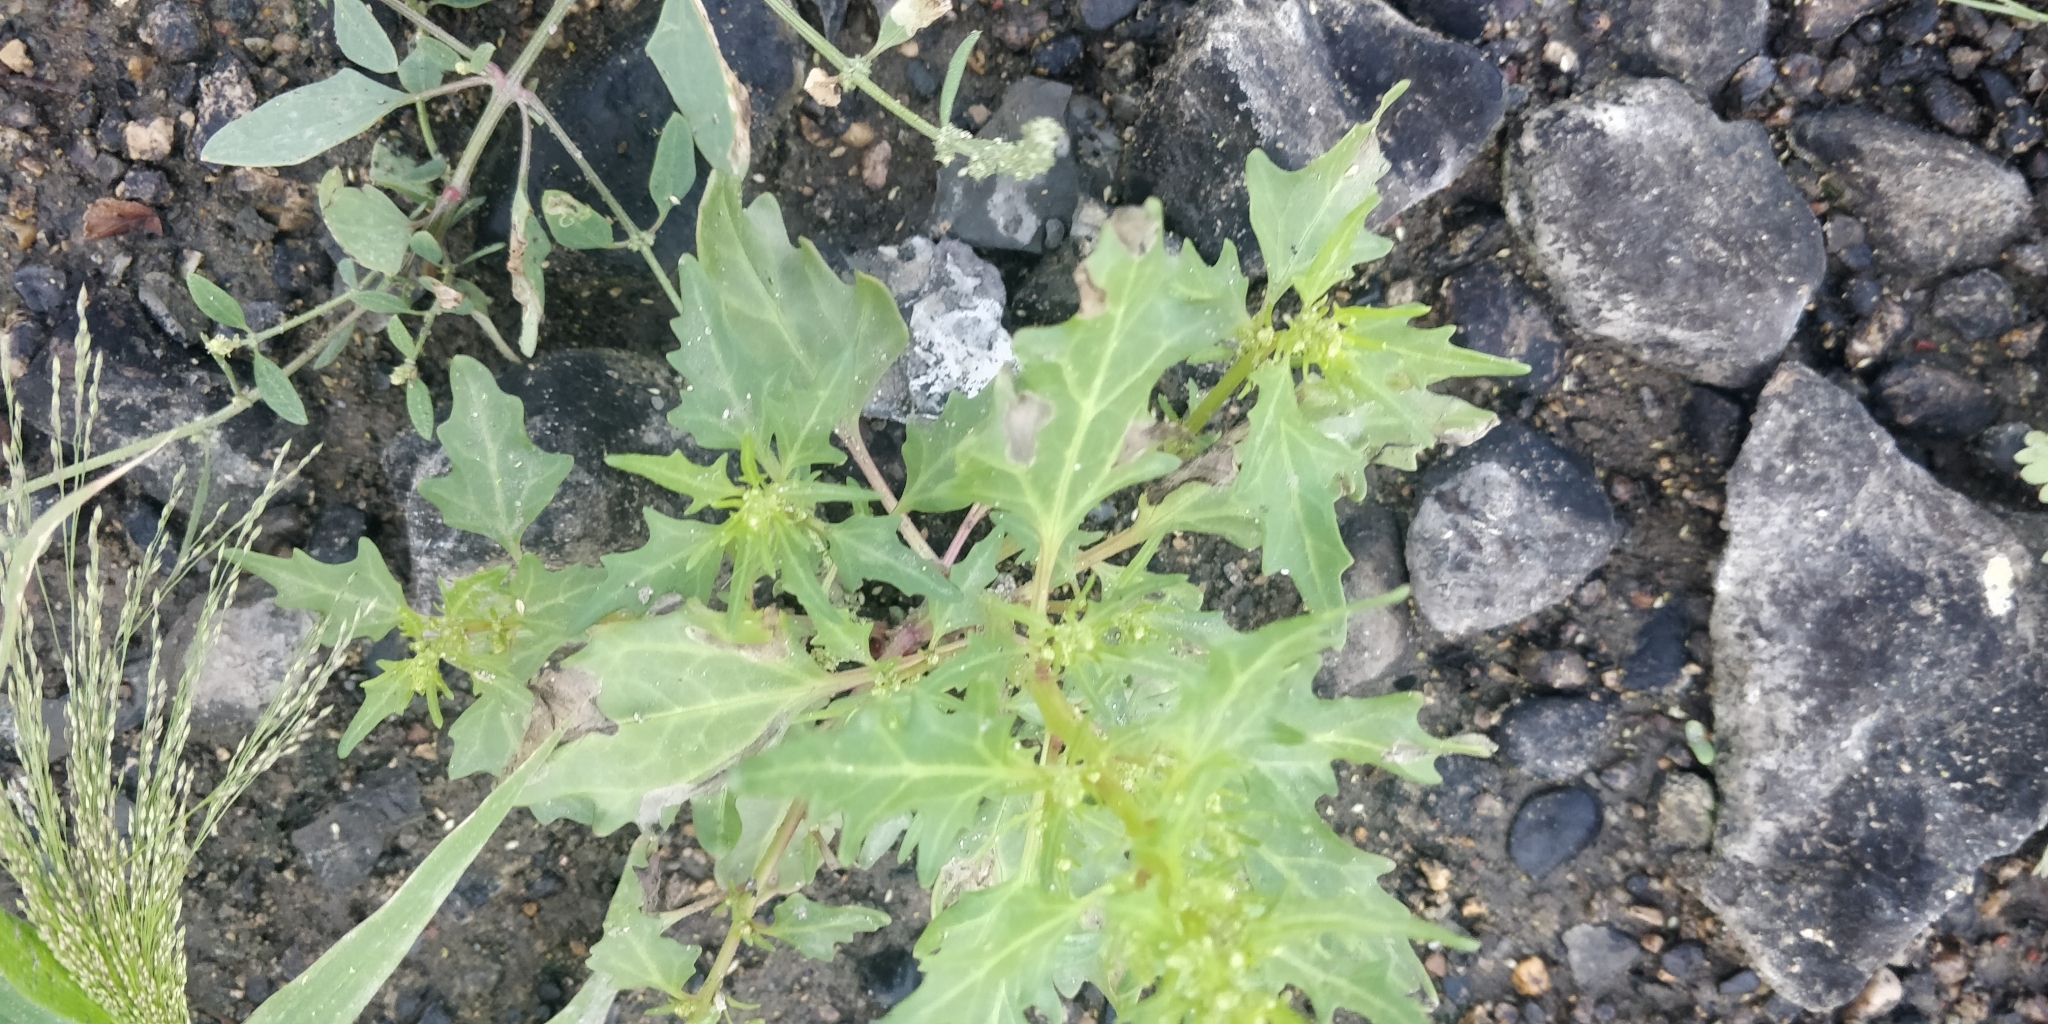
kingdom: Plantae
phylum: Tracheophyta
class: Magnoliopsida
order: Caryophyllales
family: Amaranthaceae
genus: Oxybasis
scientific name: Oxybasis rubra
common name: Red goosefoot
